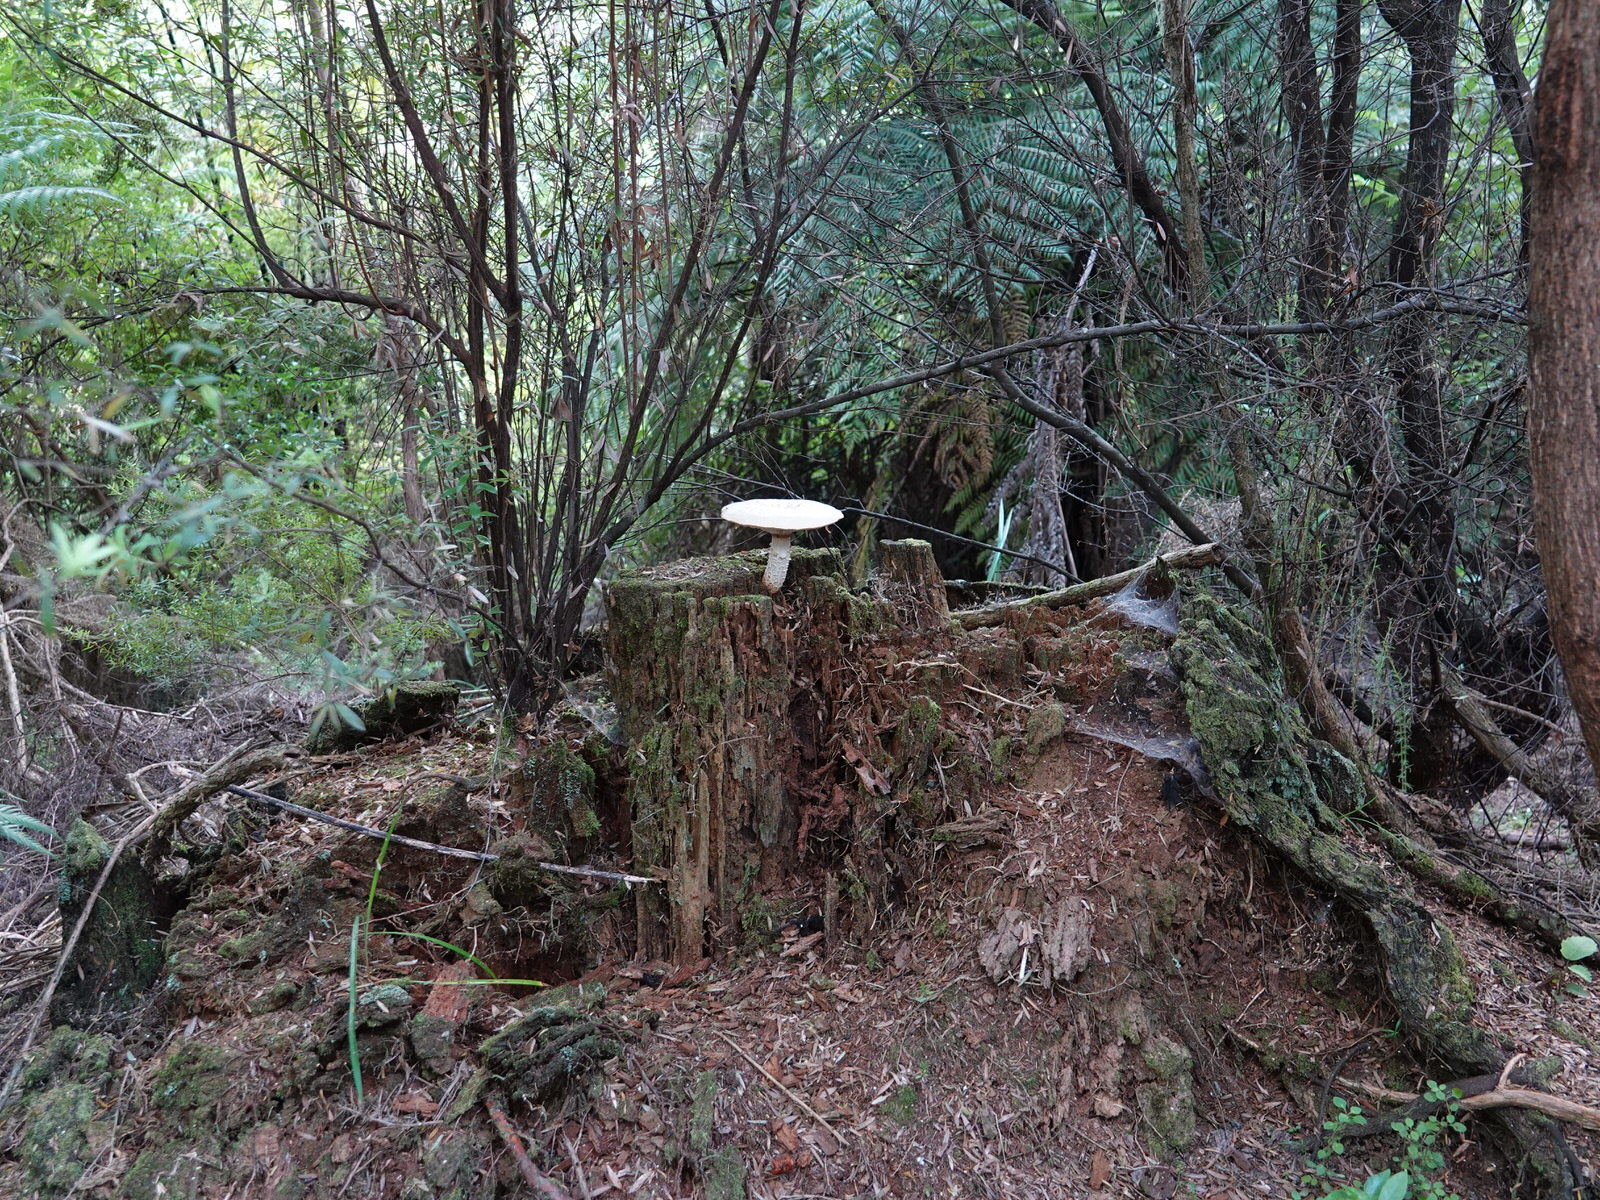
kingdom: Fungi
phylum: Basidiomycota
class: Agaricomycetes
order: Gloeophyllales
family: Gloeophyllaceae
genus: Neolentinus
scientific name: Neolentinus lepideus
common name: Scaly sawgill
